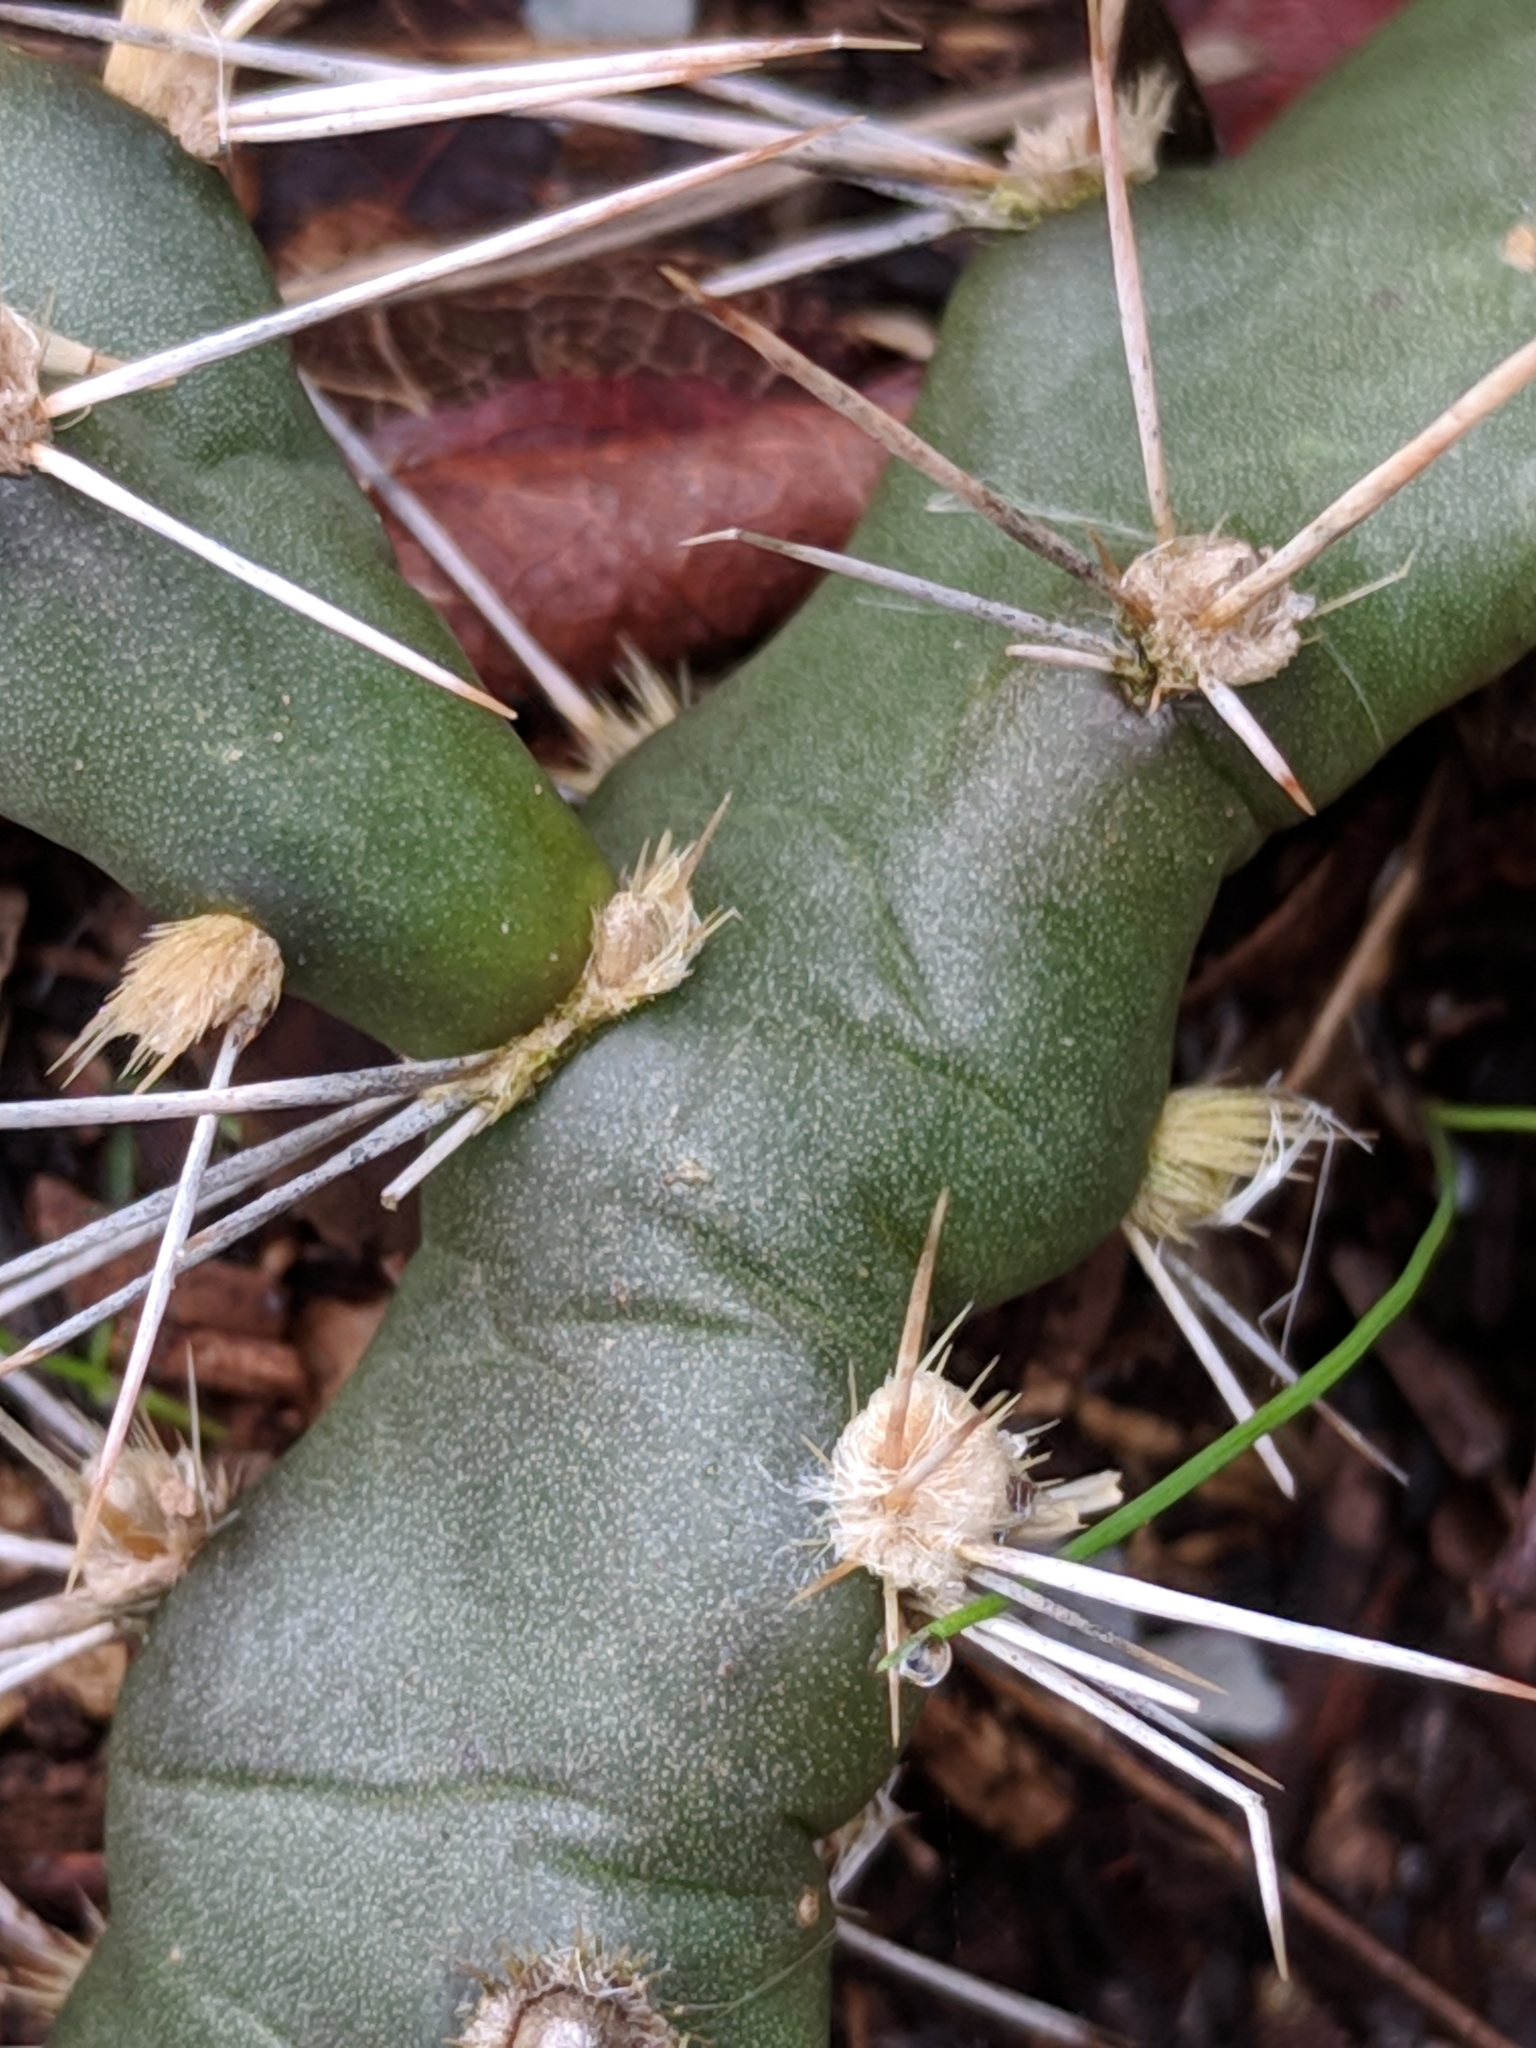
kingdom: Plantae
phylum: Tracheophyta
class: Magnoliopsida
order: Caryophyllales
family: Cactaceae
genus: Opuntia
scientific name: Opuntia drummondii
